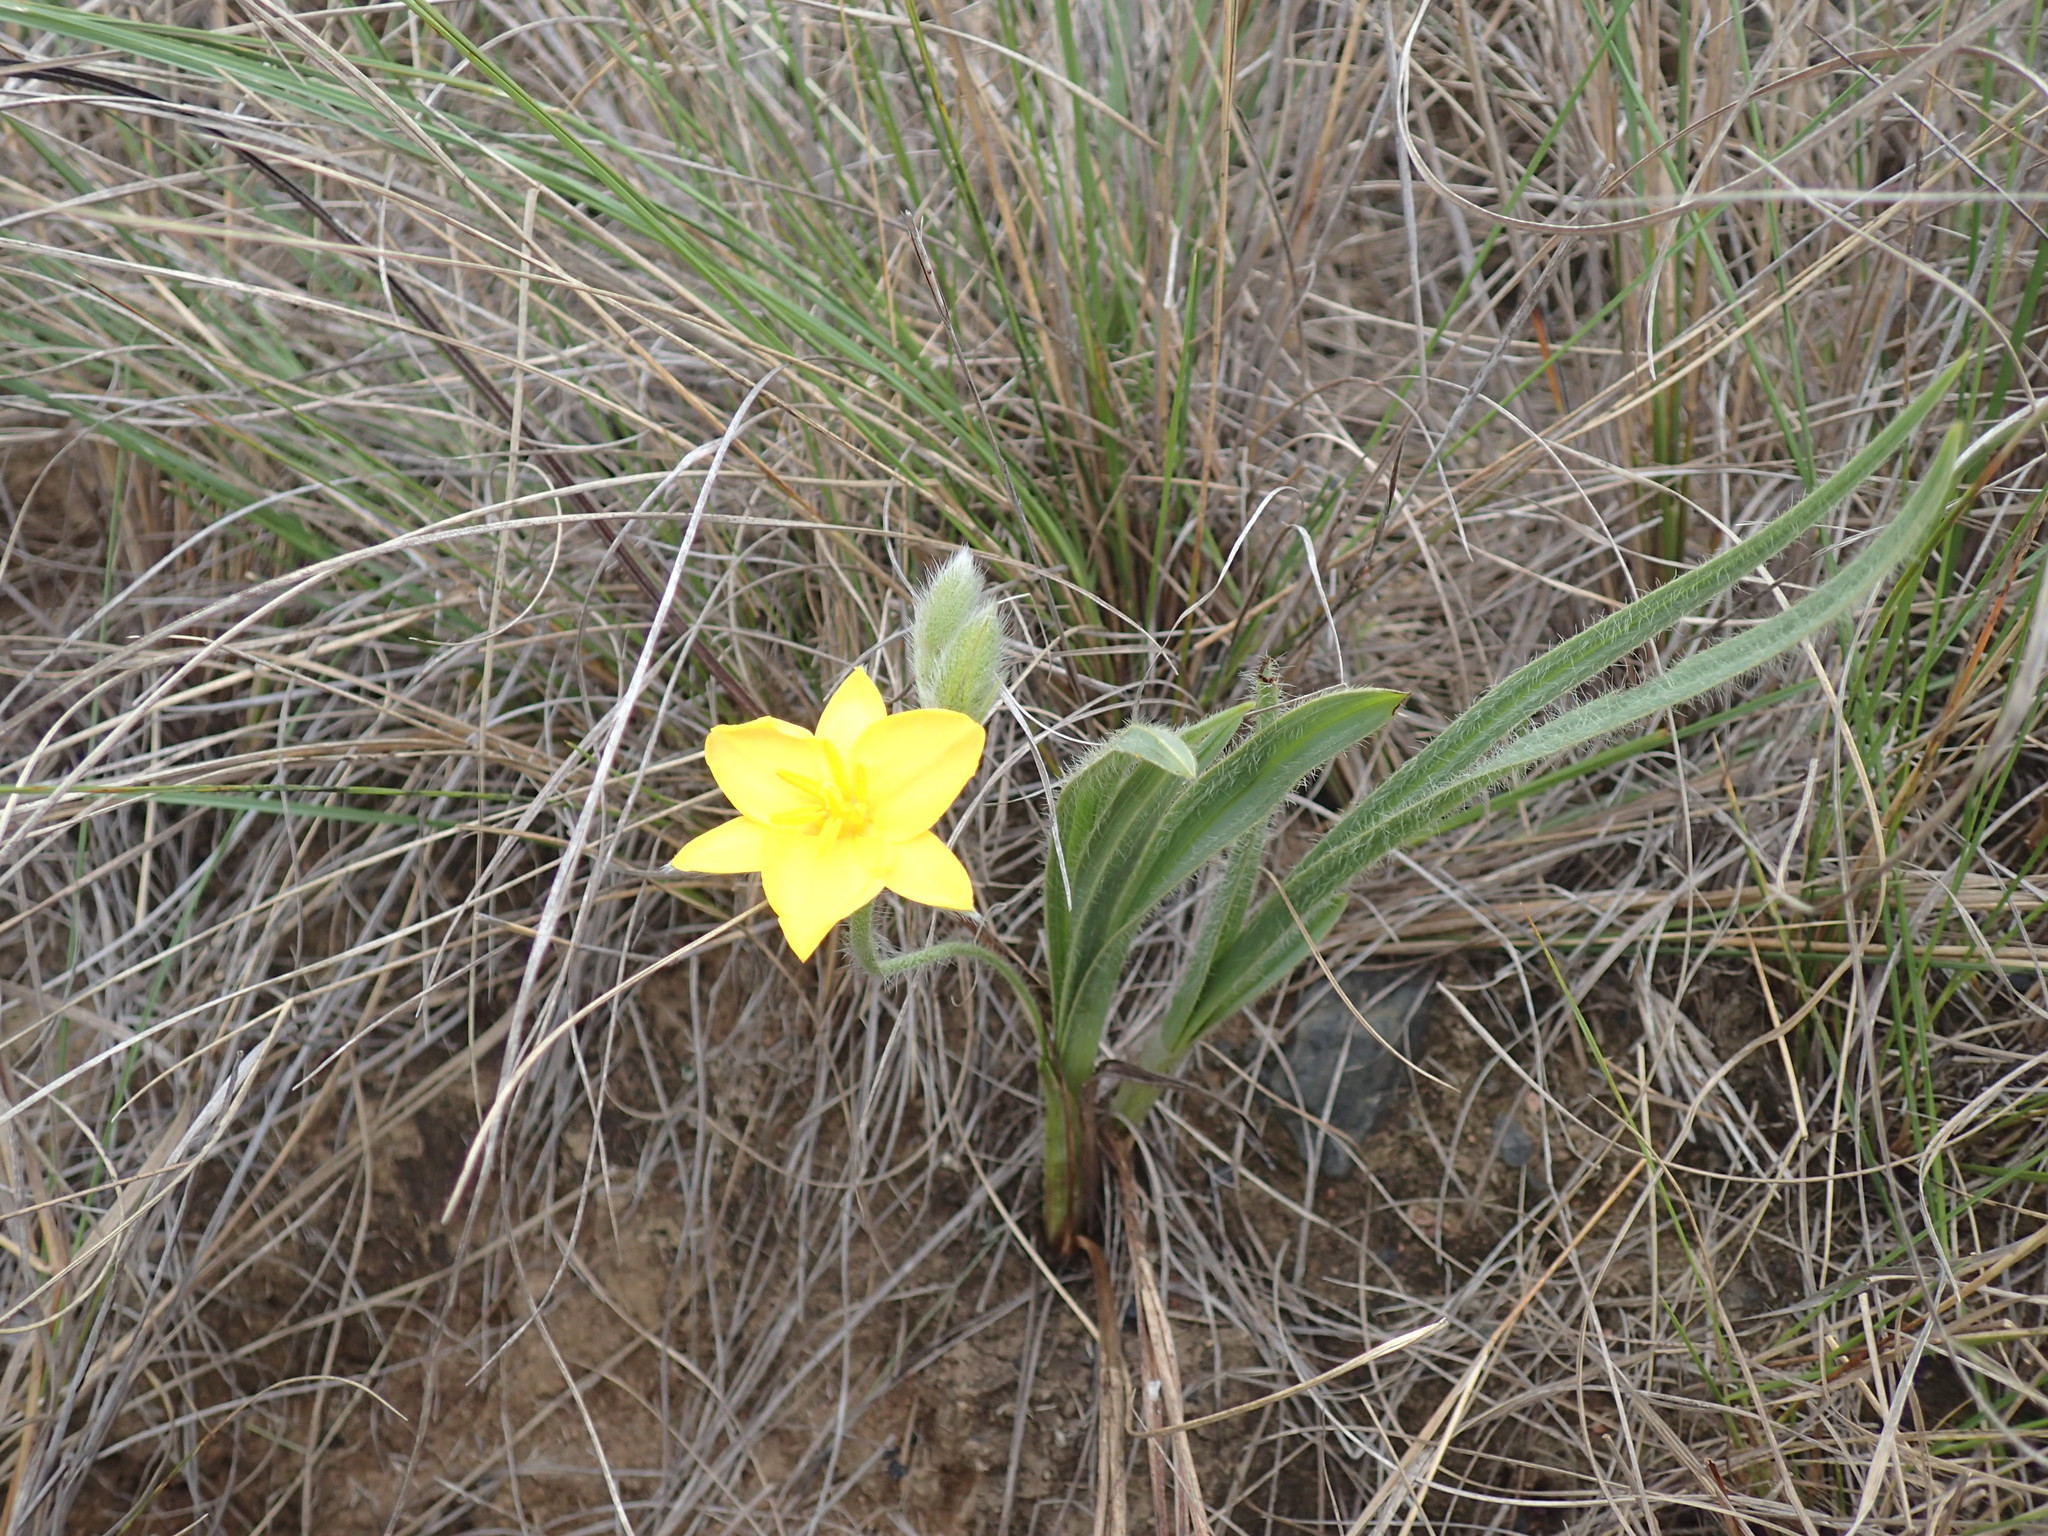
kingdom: Plantae
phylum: Tracheophyta
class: Liliopsida
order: Asparagales
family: Hypoxidaceae
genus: Hypoxis
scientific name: Hypoxis acuminata
